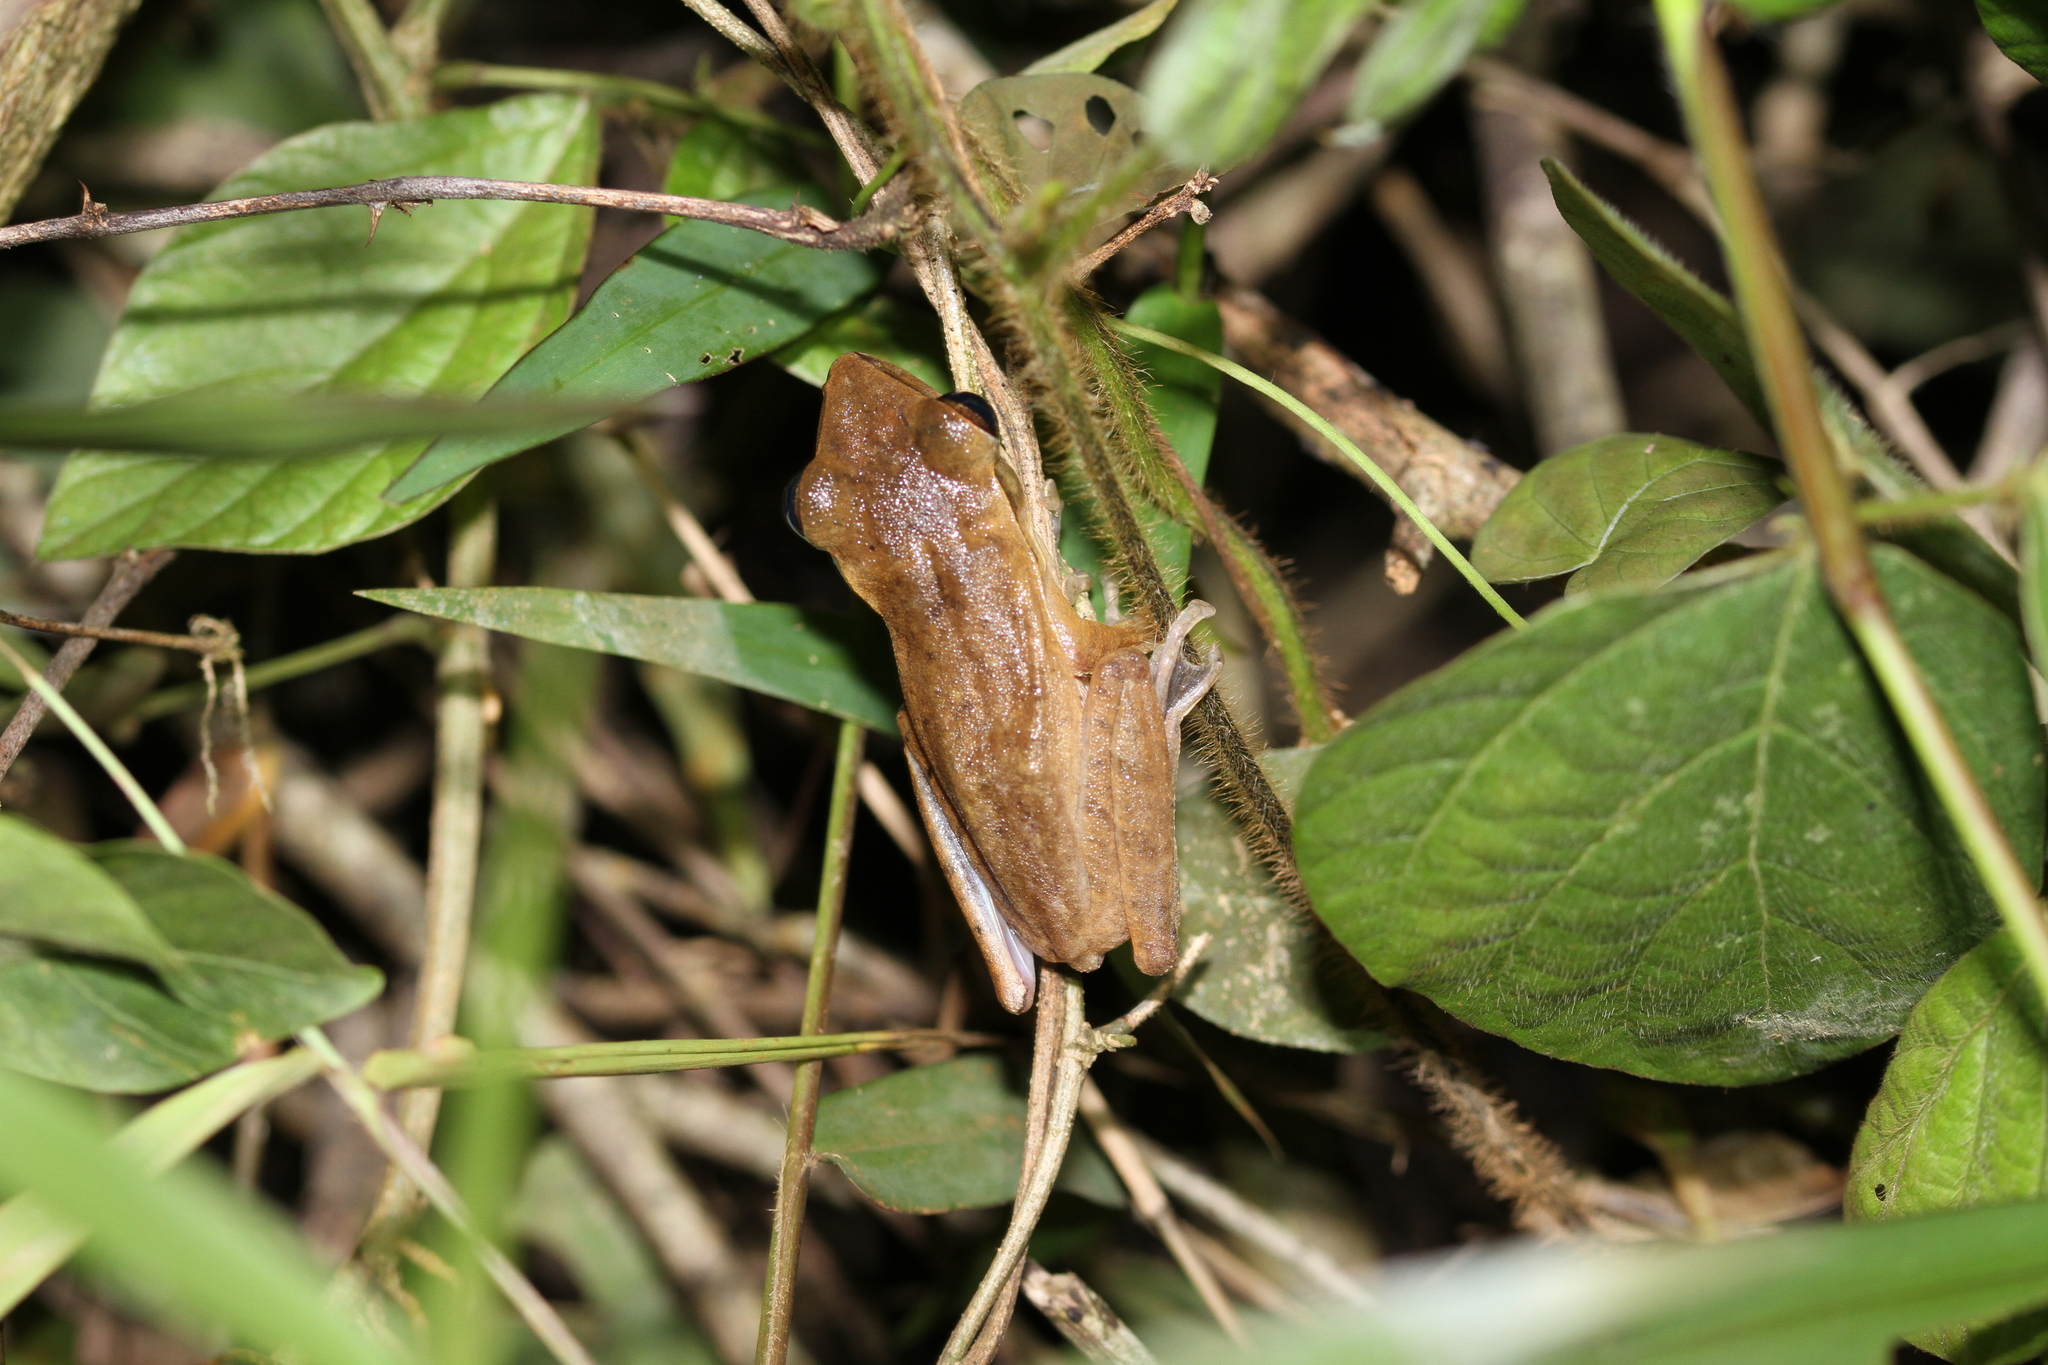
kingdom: Animalia
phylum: Chordata
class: Amphibia
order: Anura
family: Rhacophoridae
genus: Polypedates
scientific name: Polypedates leucomystax
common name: Common tree frog/four-lined tree frog
